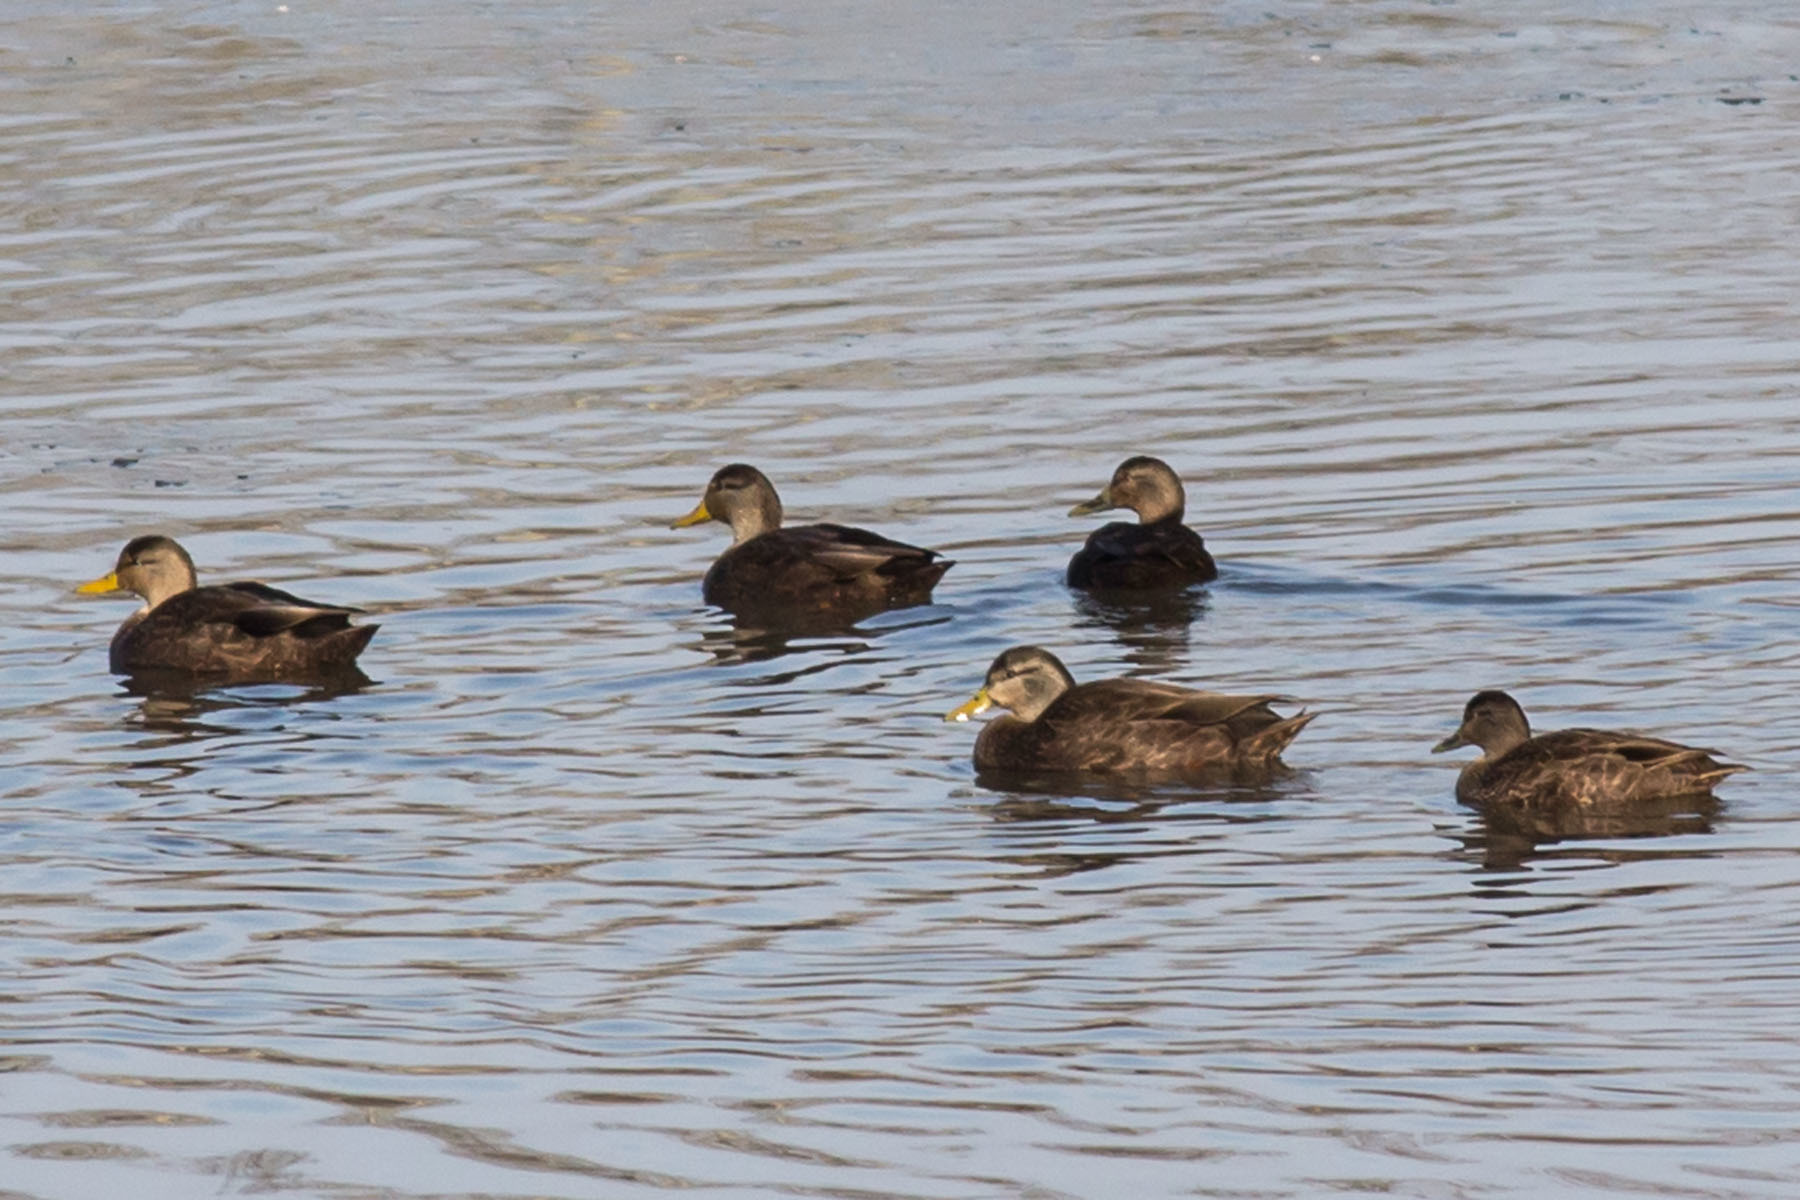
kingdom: Animalia
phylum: Chordata
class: Aves
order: Anseriformes
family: Anatidae
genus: Anas
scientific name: Anas rubripes
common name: American black duck
